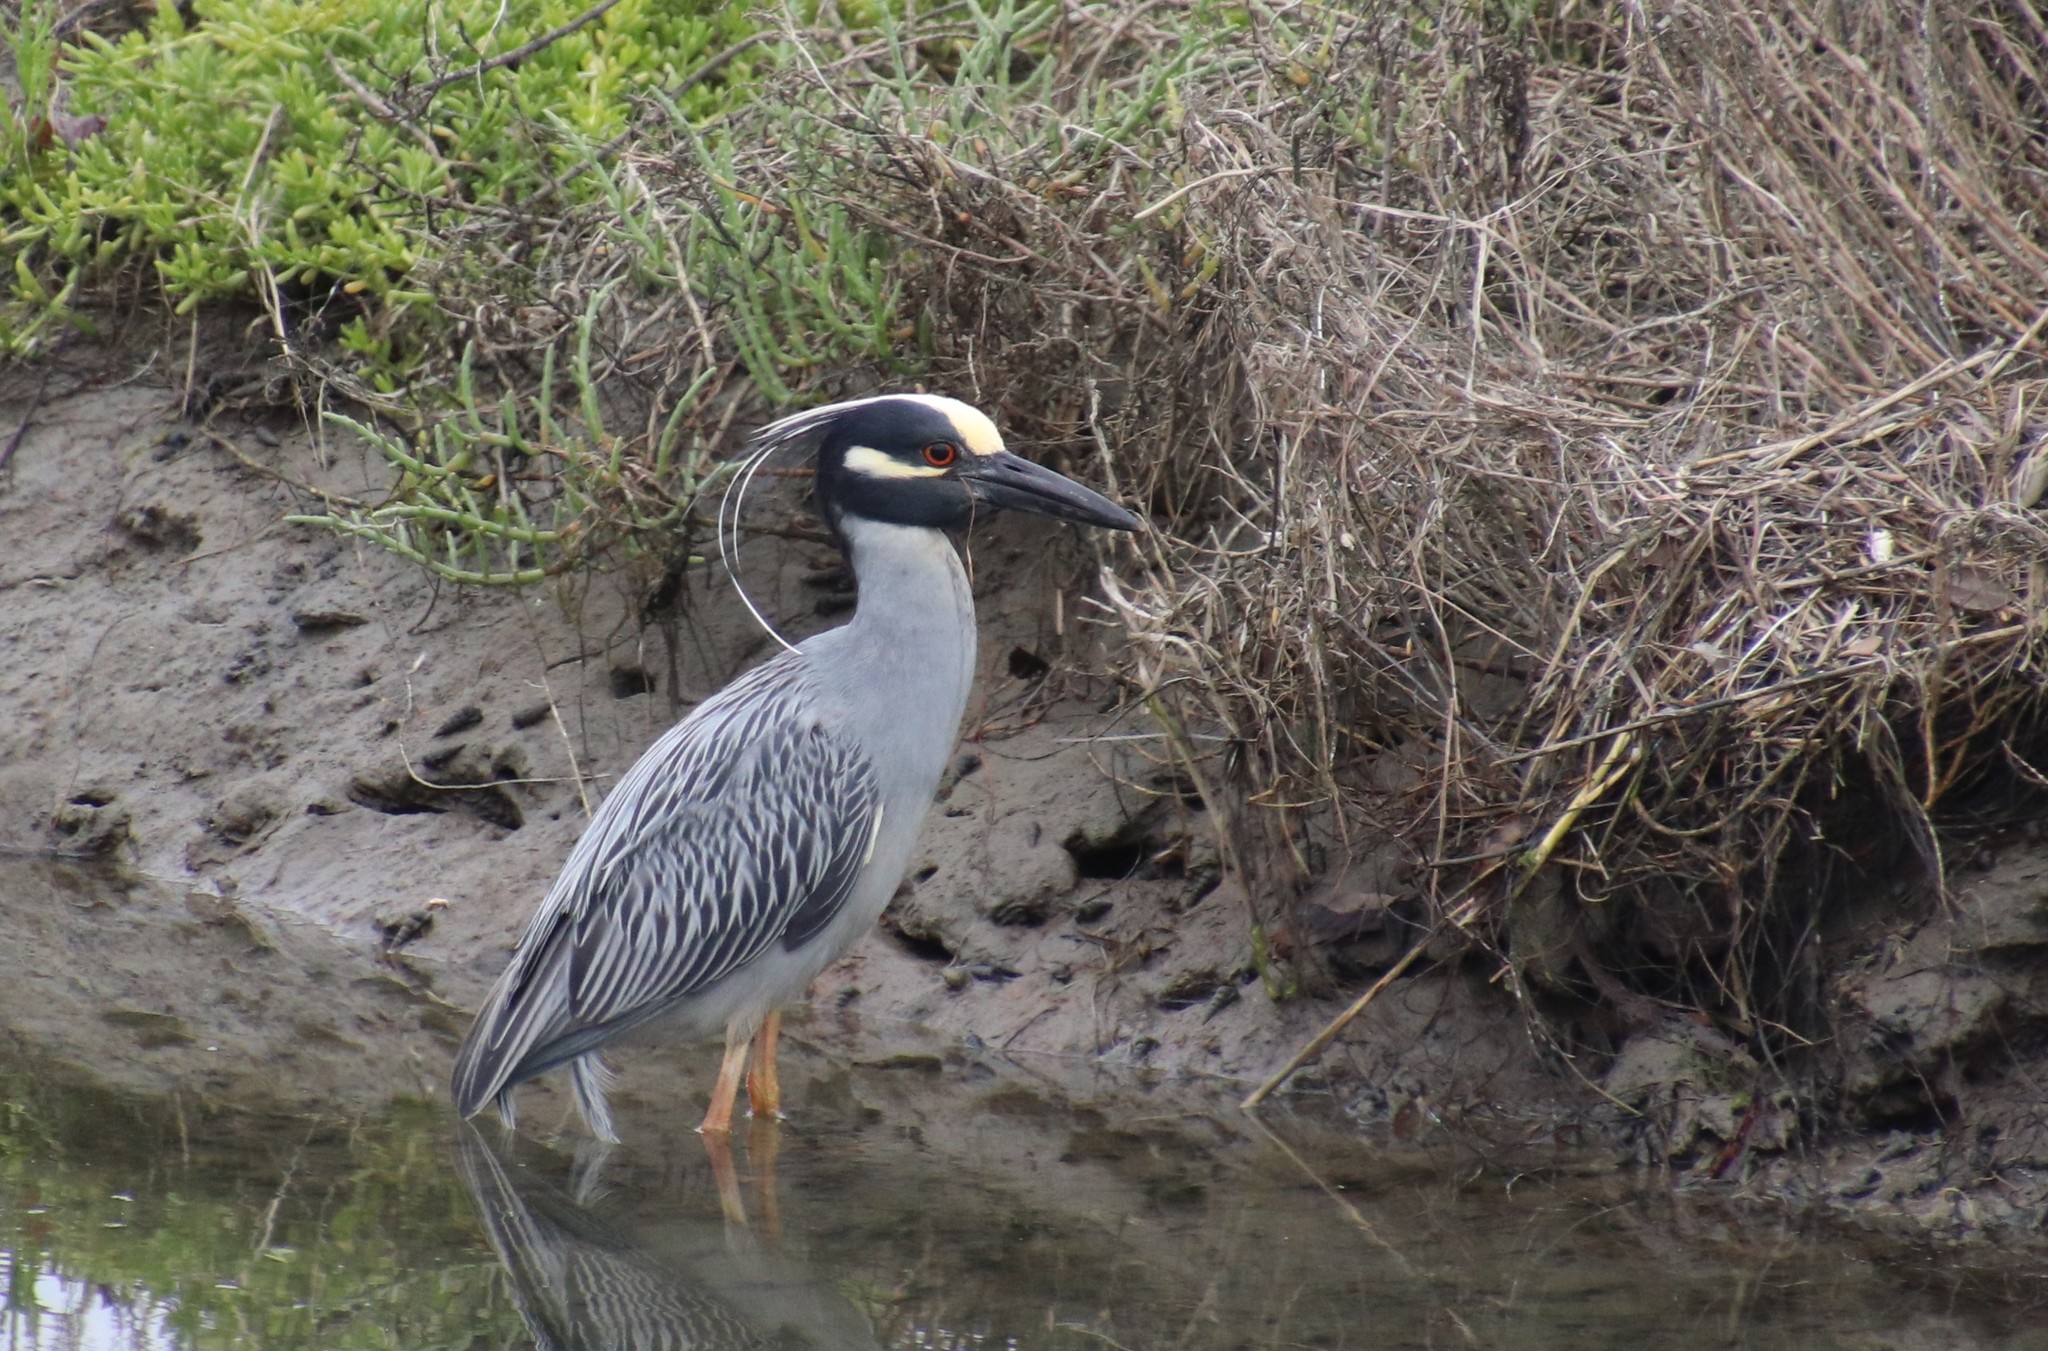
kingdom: Animalia
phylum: Chordata
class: Aves
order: Pelecaniformes
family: Ardeidae
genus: Nyctanassa
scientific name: Nyctanassa violacea
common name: Yellow-crowned night heron
